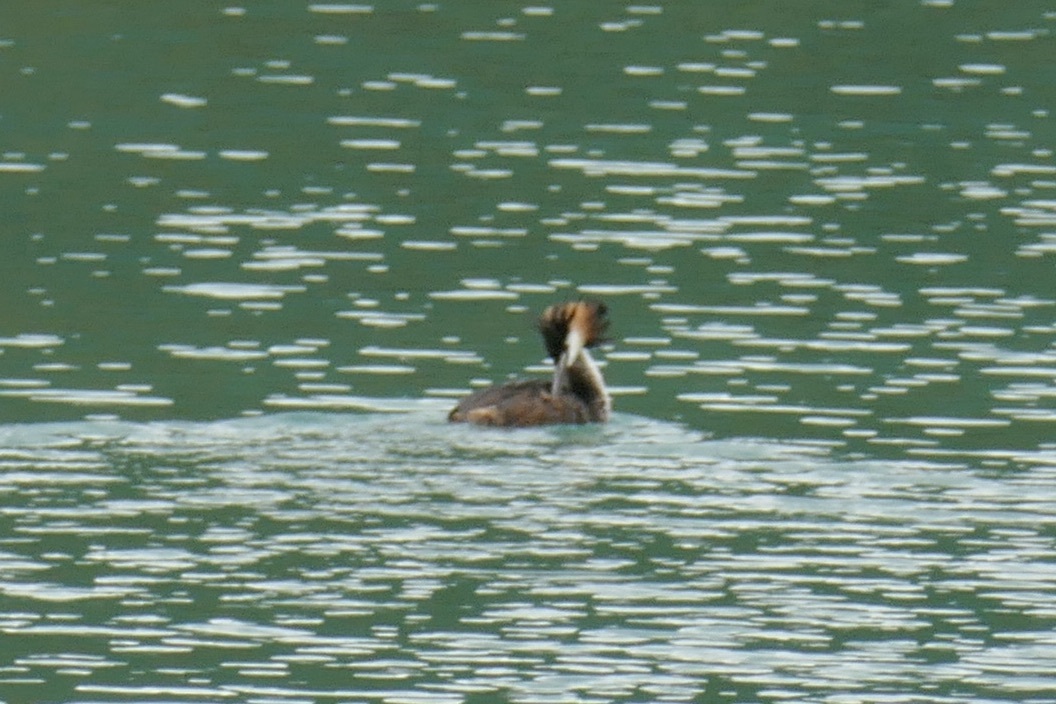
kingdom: Animalia
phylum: Chordata
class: Aves
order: Podicipediformes
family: Podicipedidae
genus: Podiceps
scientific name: Podiceps cristatus
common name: Great crested grebe
